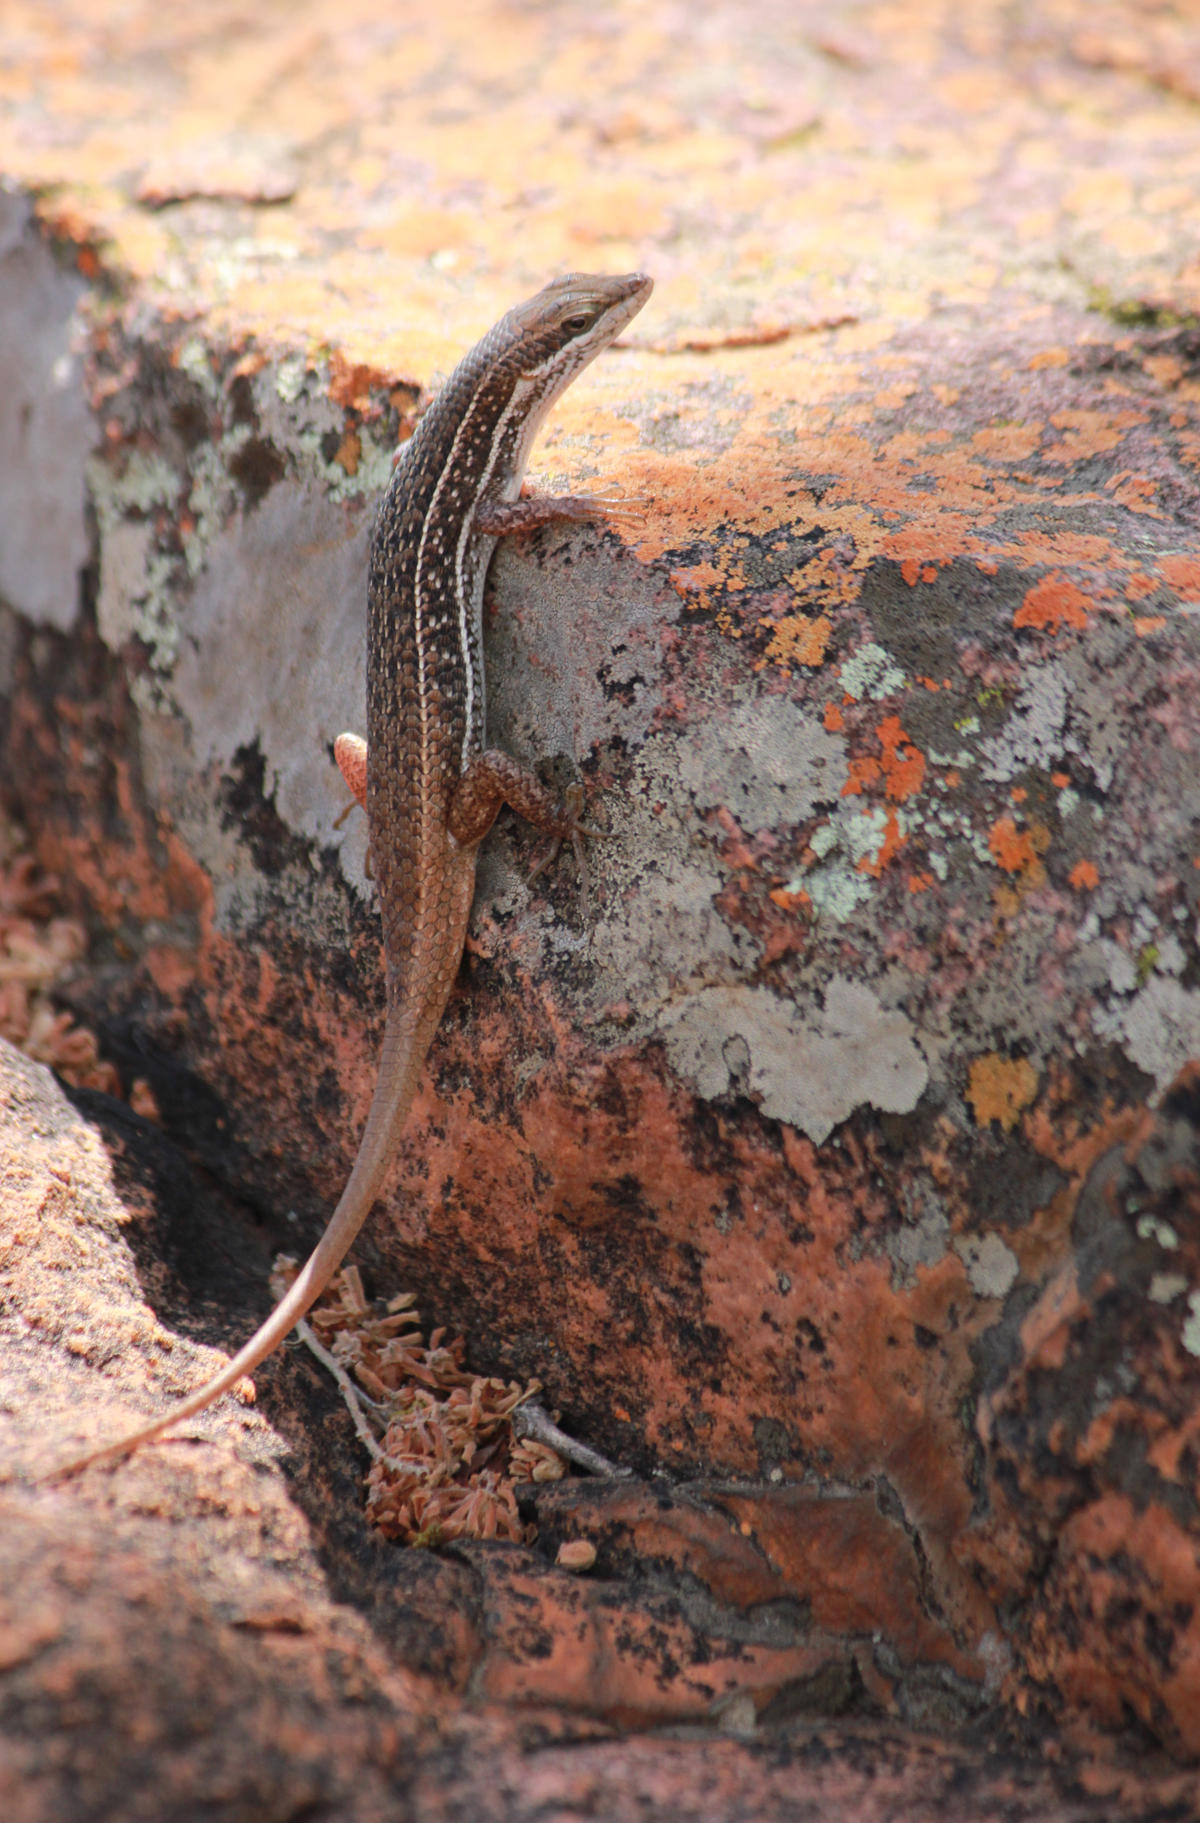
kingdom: Animalia
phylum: Chordata
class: Squamata
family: Scincidae
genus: Trachylepis
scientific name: Trachylepis damarana
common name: Damara skink
